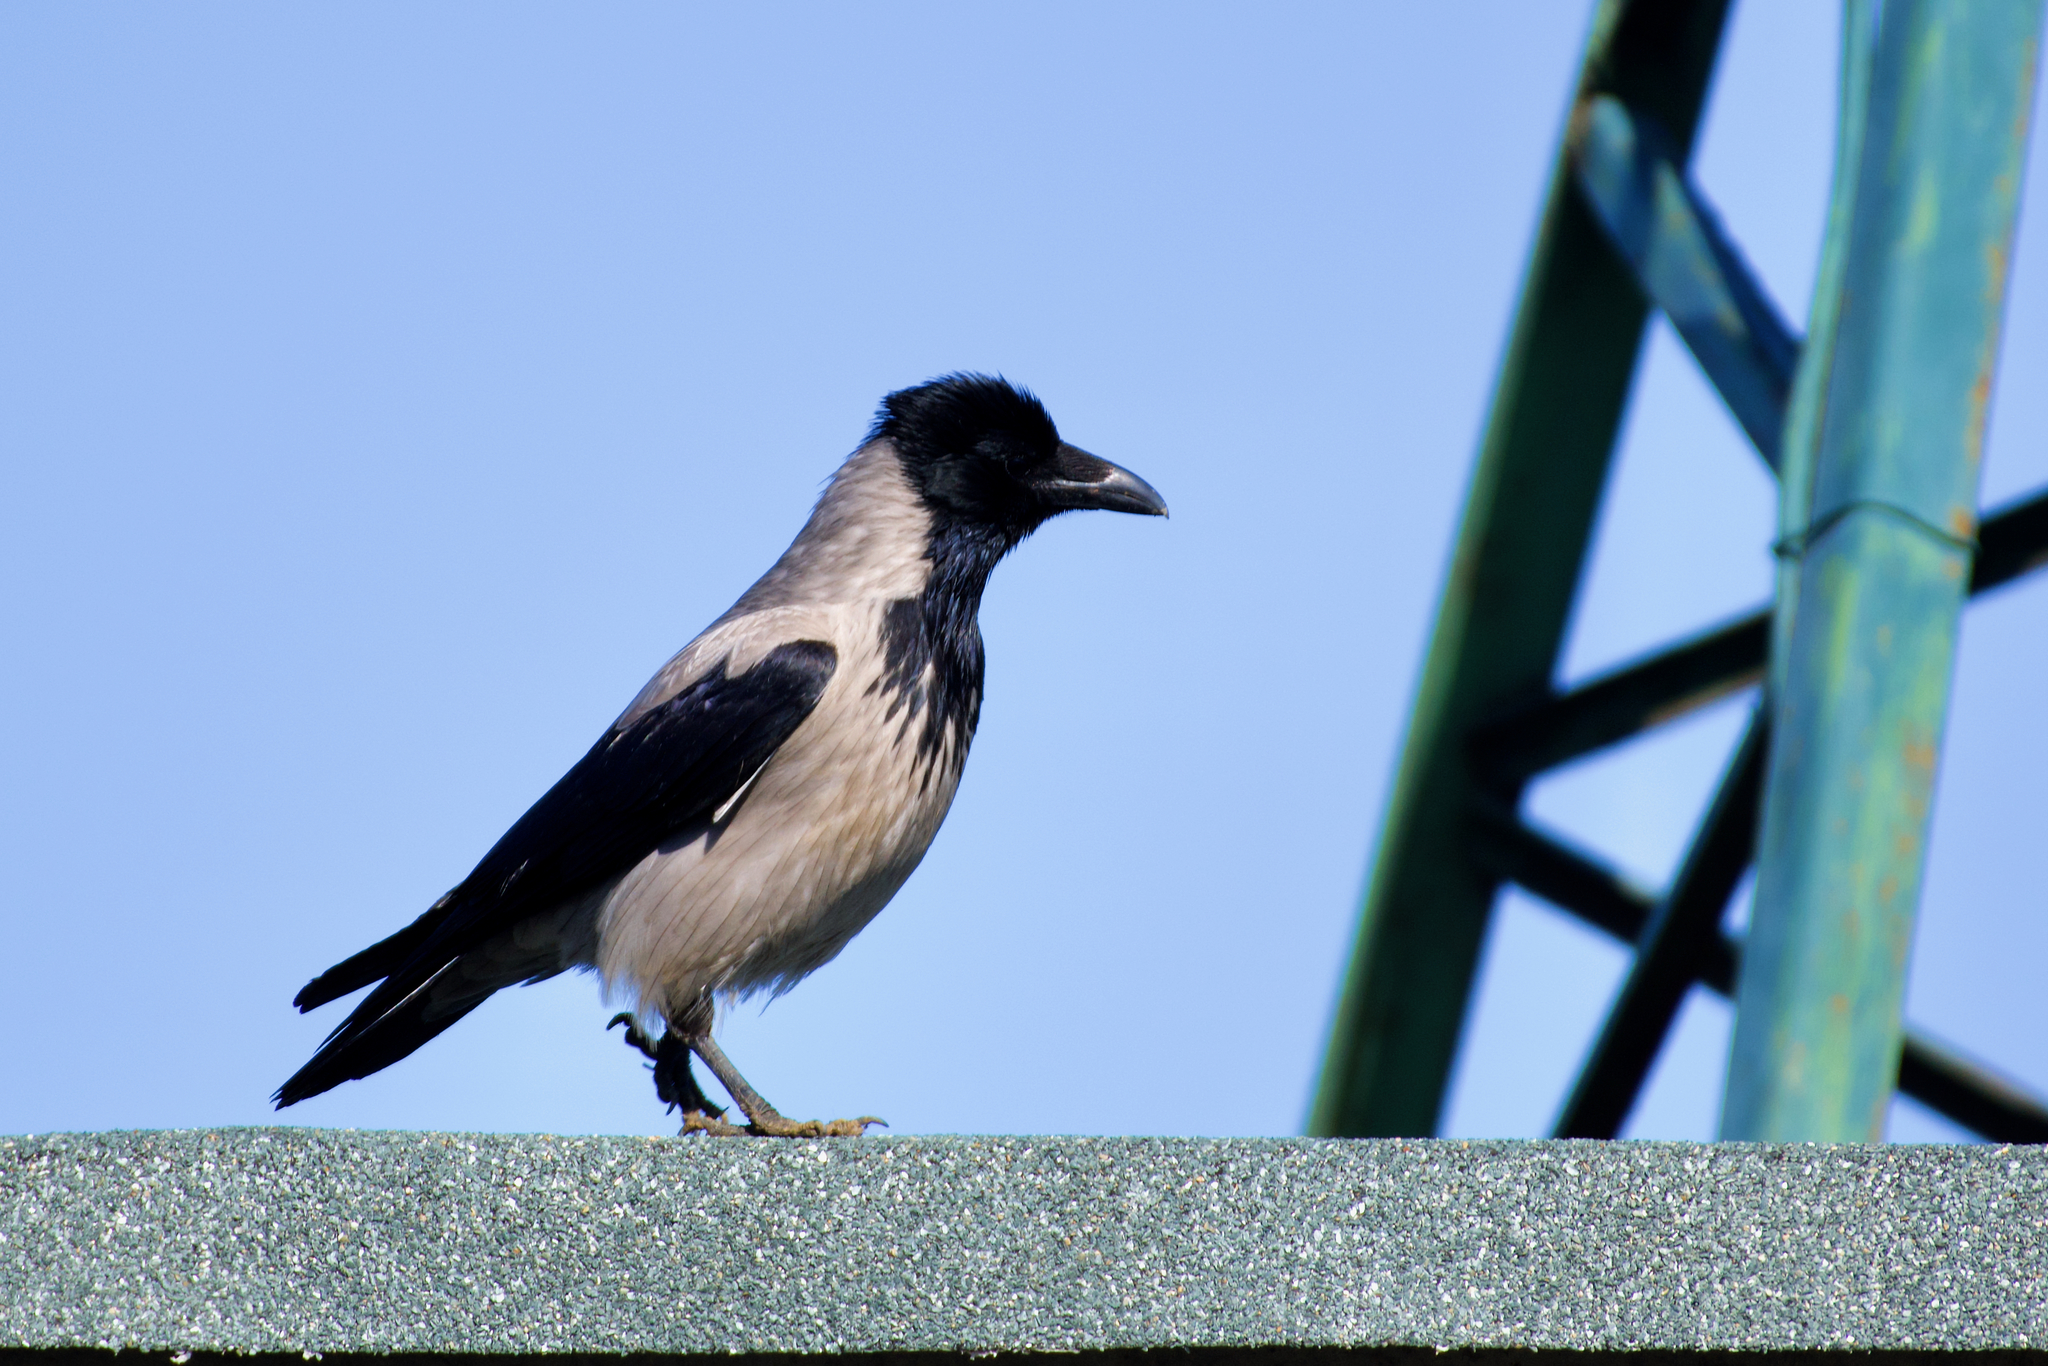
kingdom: Animalia
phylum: Chordata
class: Aves
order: Passeriformes
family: Corvidae
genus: Corvus
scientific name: Corvus cornix
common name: Hooded crow
